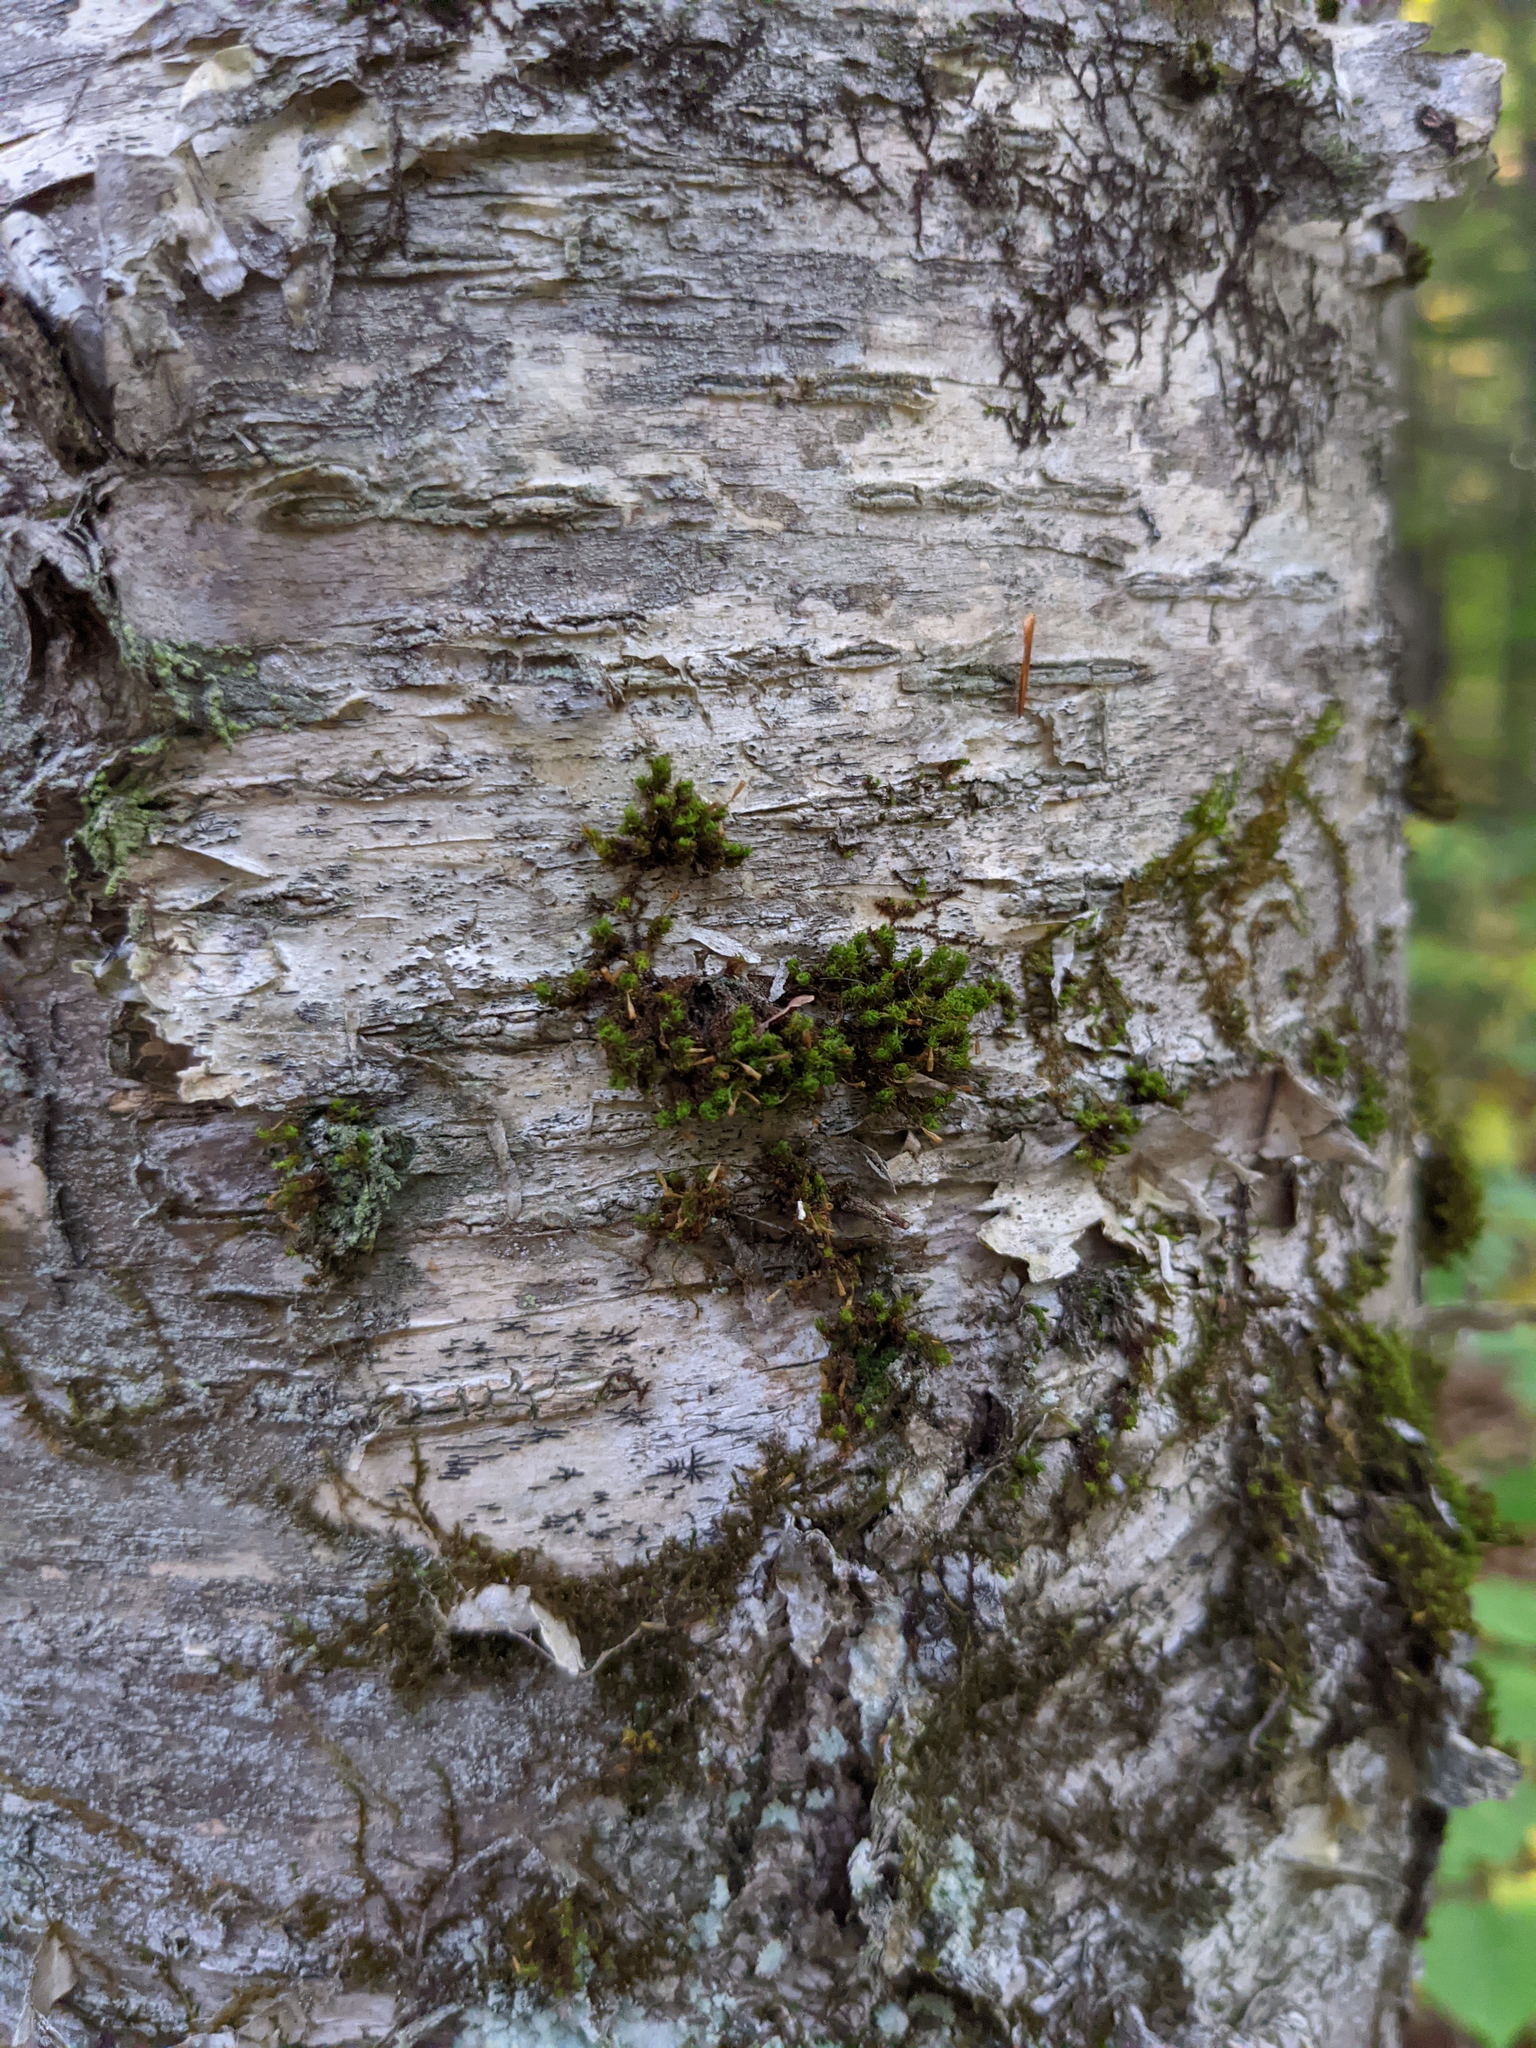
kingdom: Plantae
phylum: Bryophyta
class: Bryopsida
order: Orthotrichales
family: Orthotrichaceae
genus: Ulota
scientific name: Ulota crispa
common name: Crisped pincushion moss
